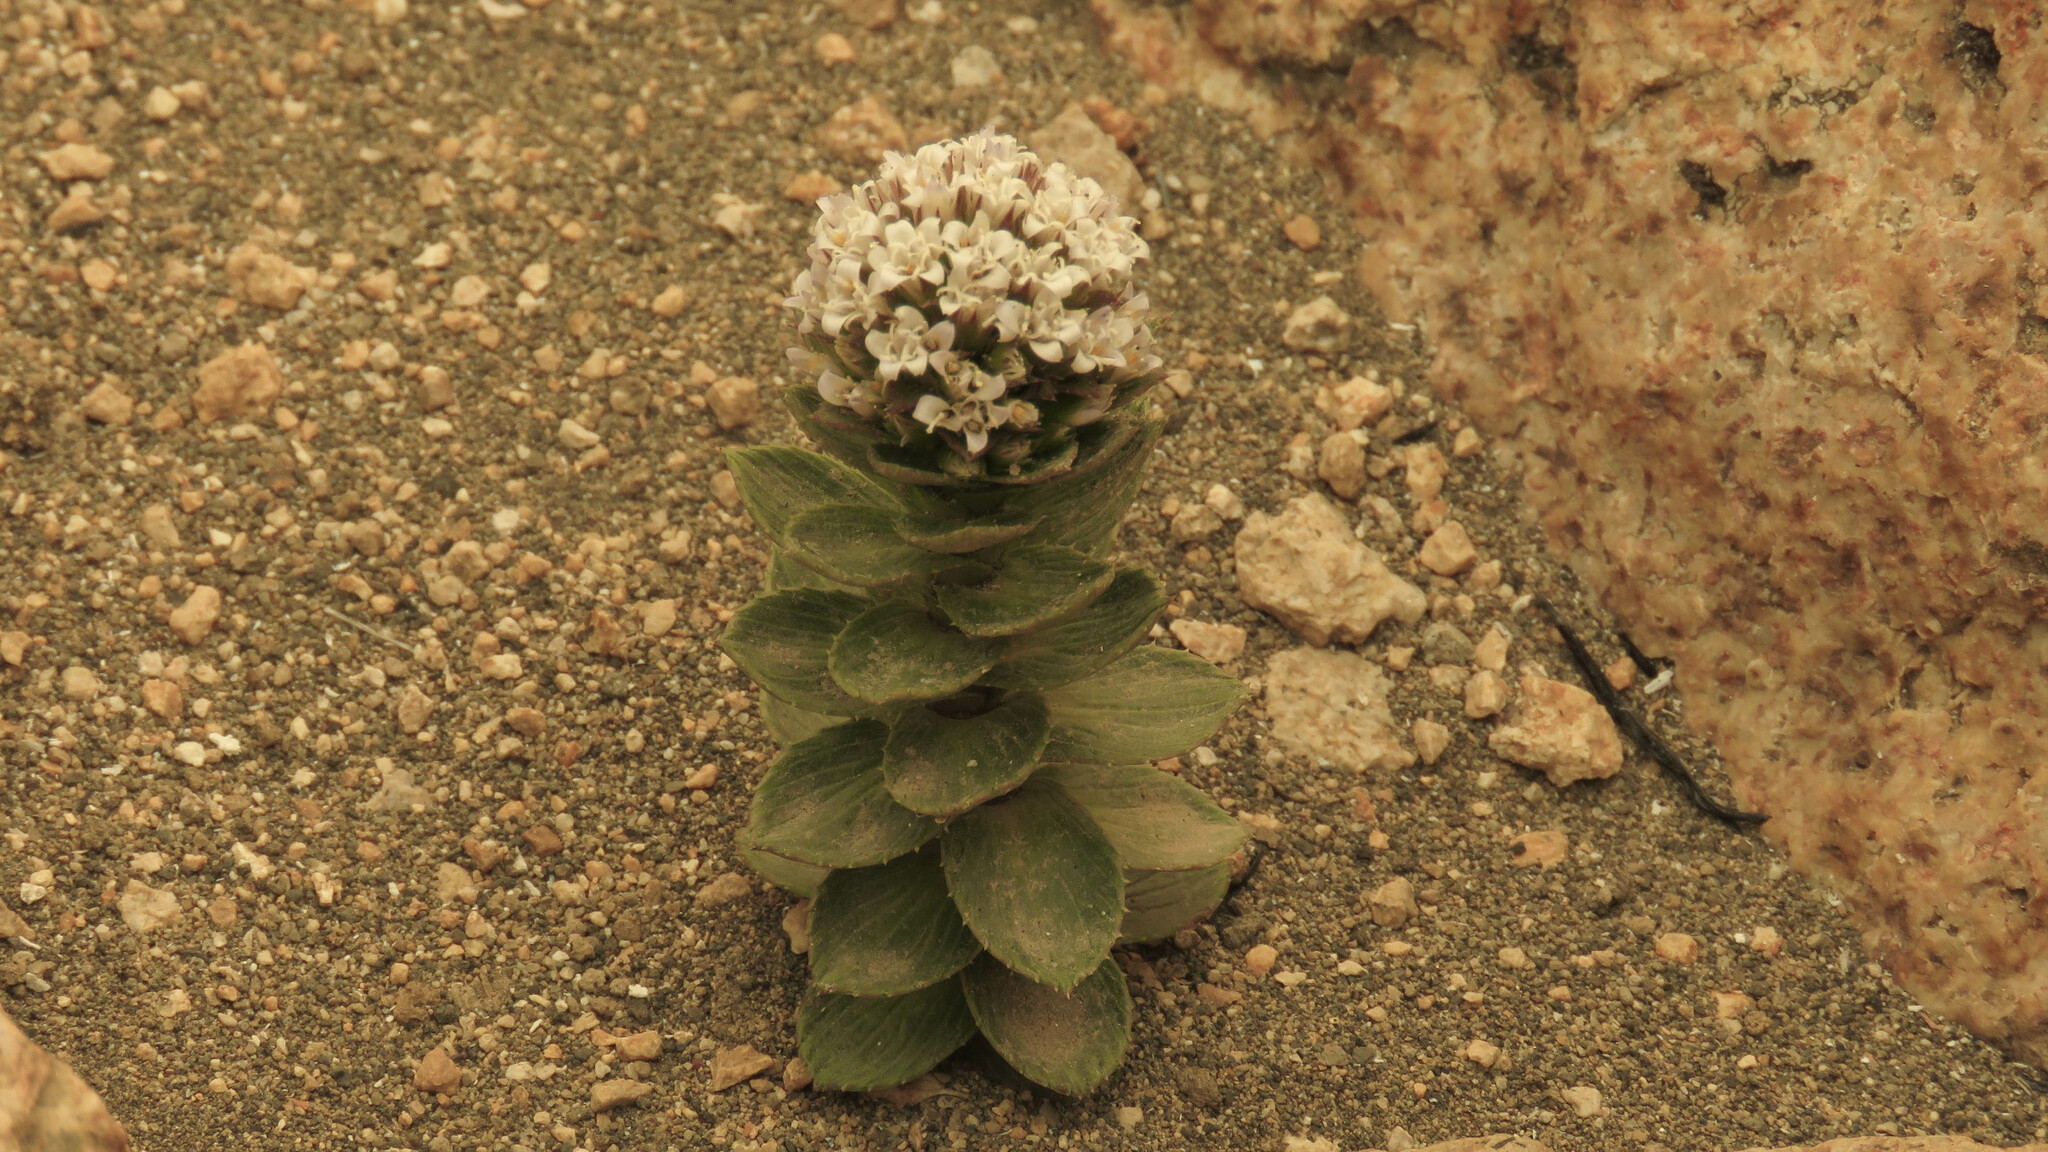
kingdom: Plantae
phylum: Tracheophyta
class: Magnoliopsida
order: Asterales
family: Asteraceae
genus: Nassauvia
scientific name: Nassauvia pulcherrima
